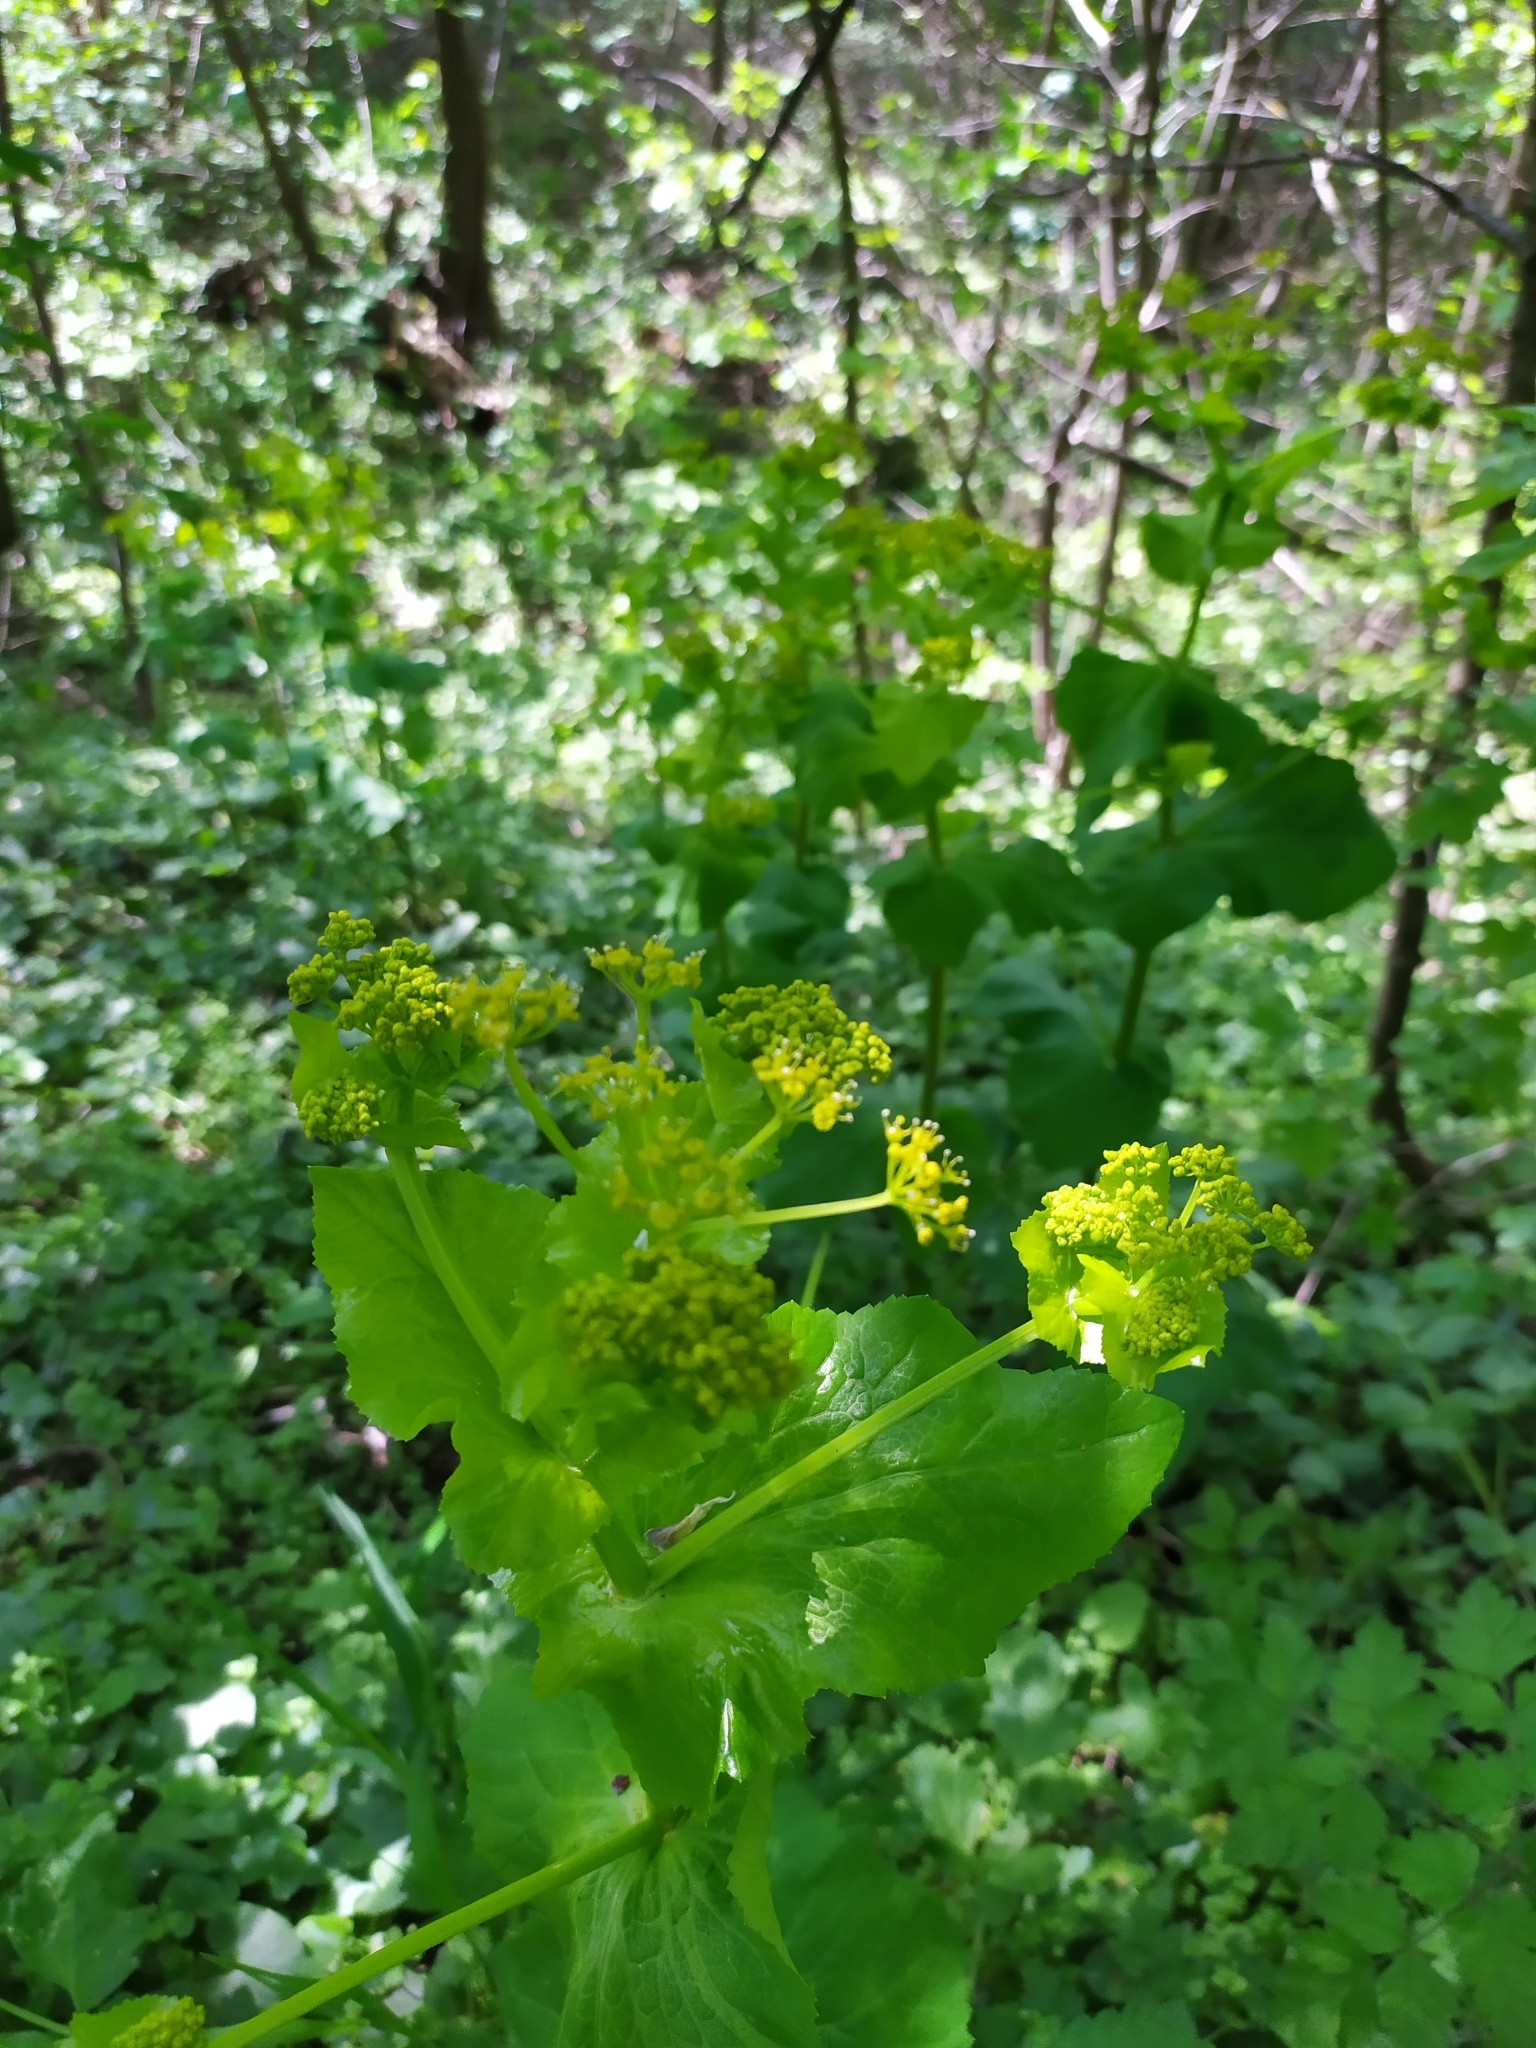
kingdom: Plantae
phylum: Tracheophyta
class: Magnoliopsida
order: Apiales
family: Apiaceae
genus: Smyrnium
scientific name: Smyrnium perfoliatum
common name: Perfoliate alexanders
